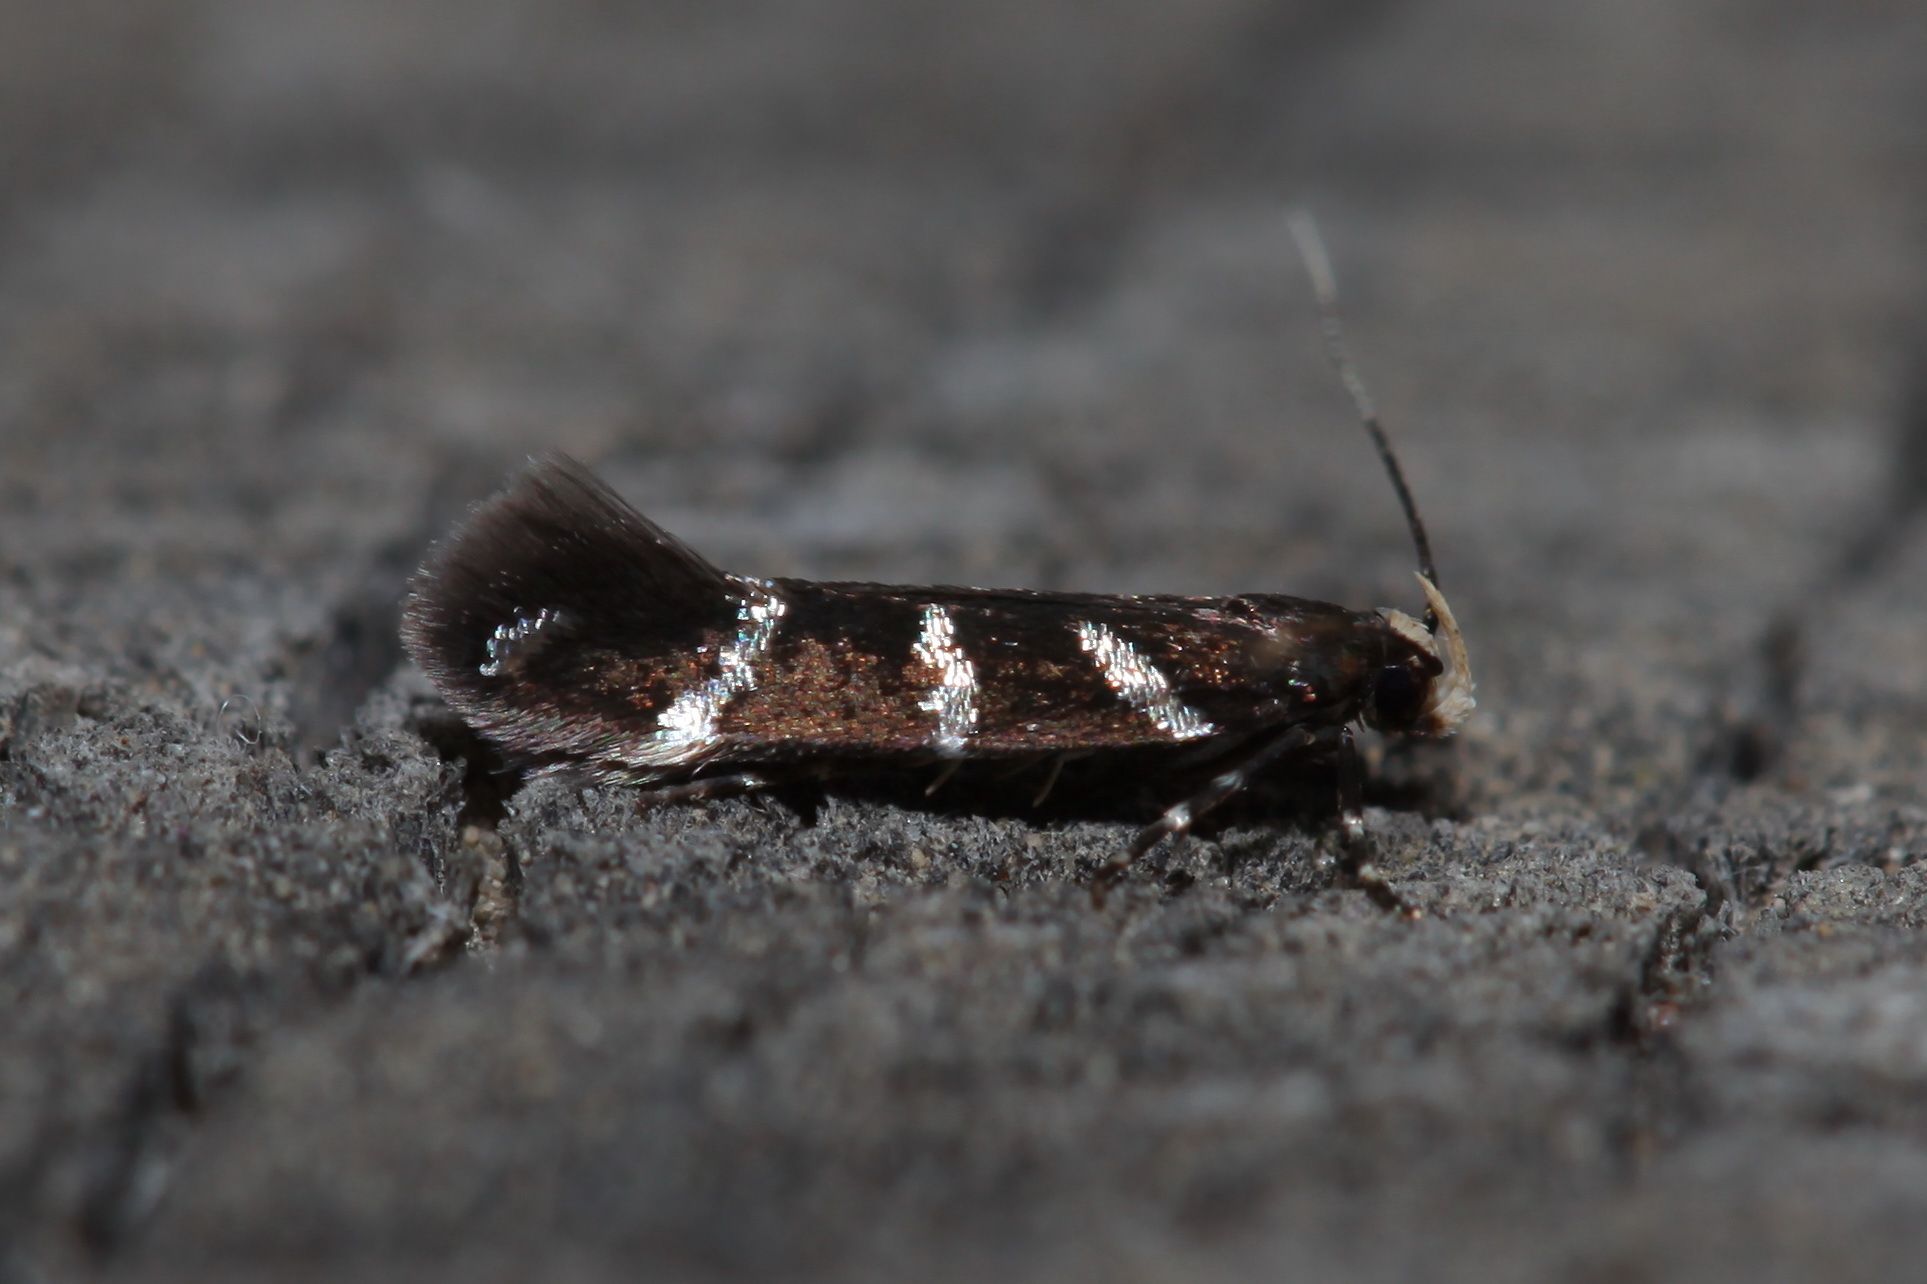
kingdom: Animalia
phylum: Arthropoda
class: Insecta
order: Lepidoptera
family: Cosmopterigidae
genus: Stagmatophora
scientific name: Stagmatophora tririvella
